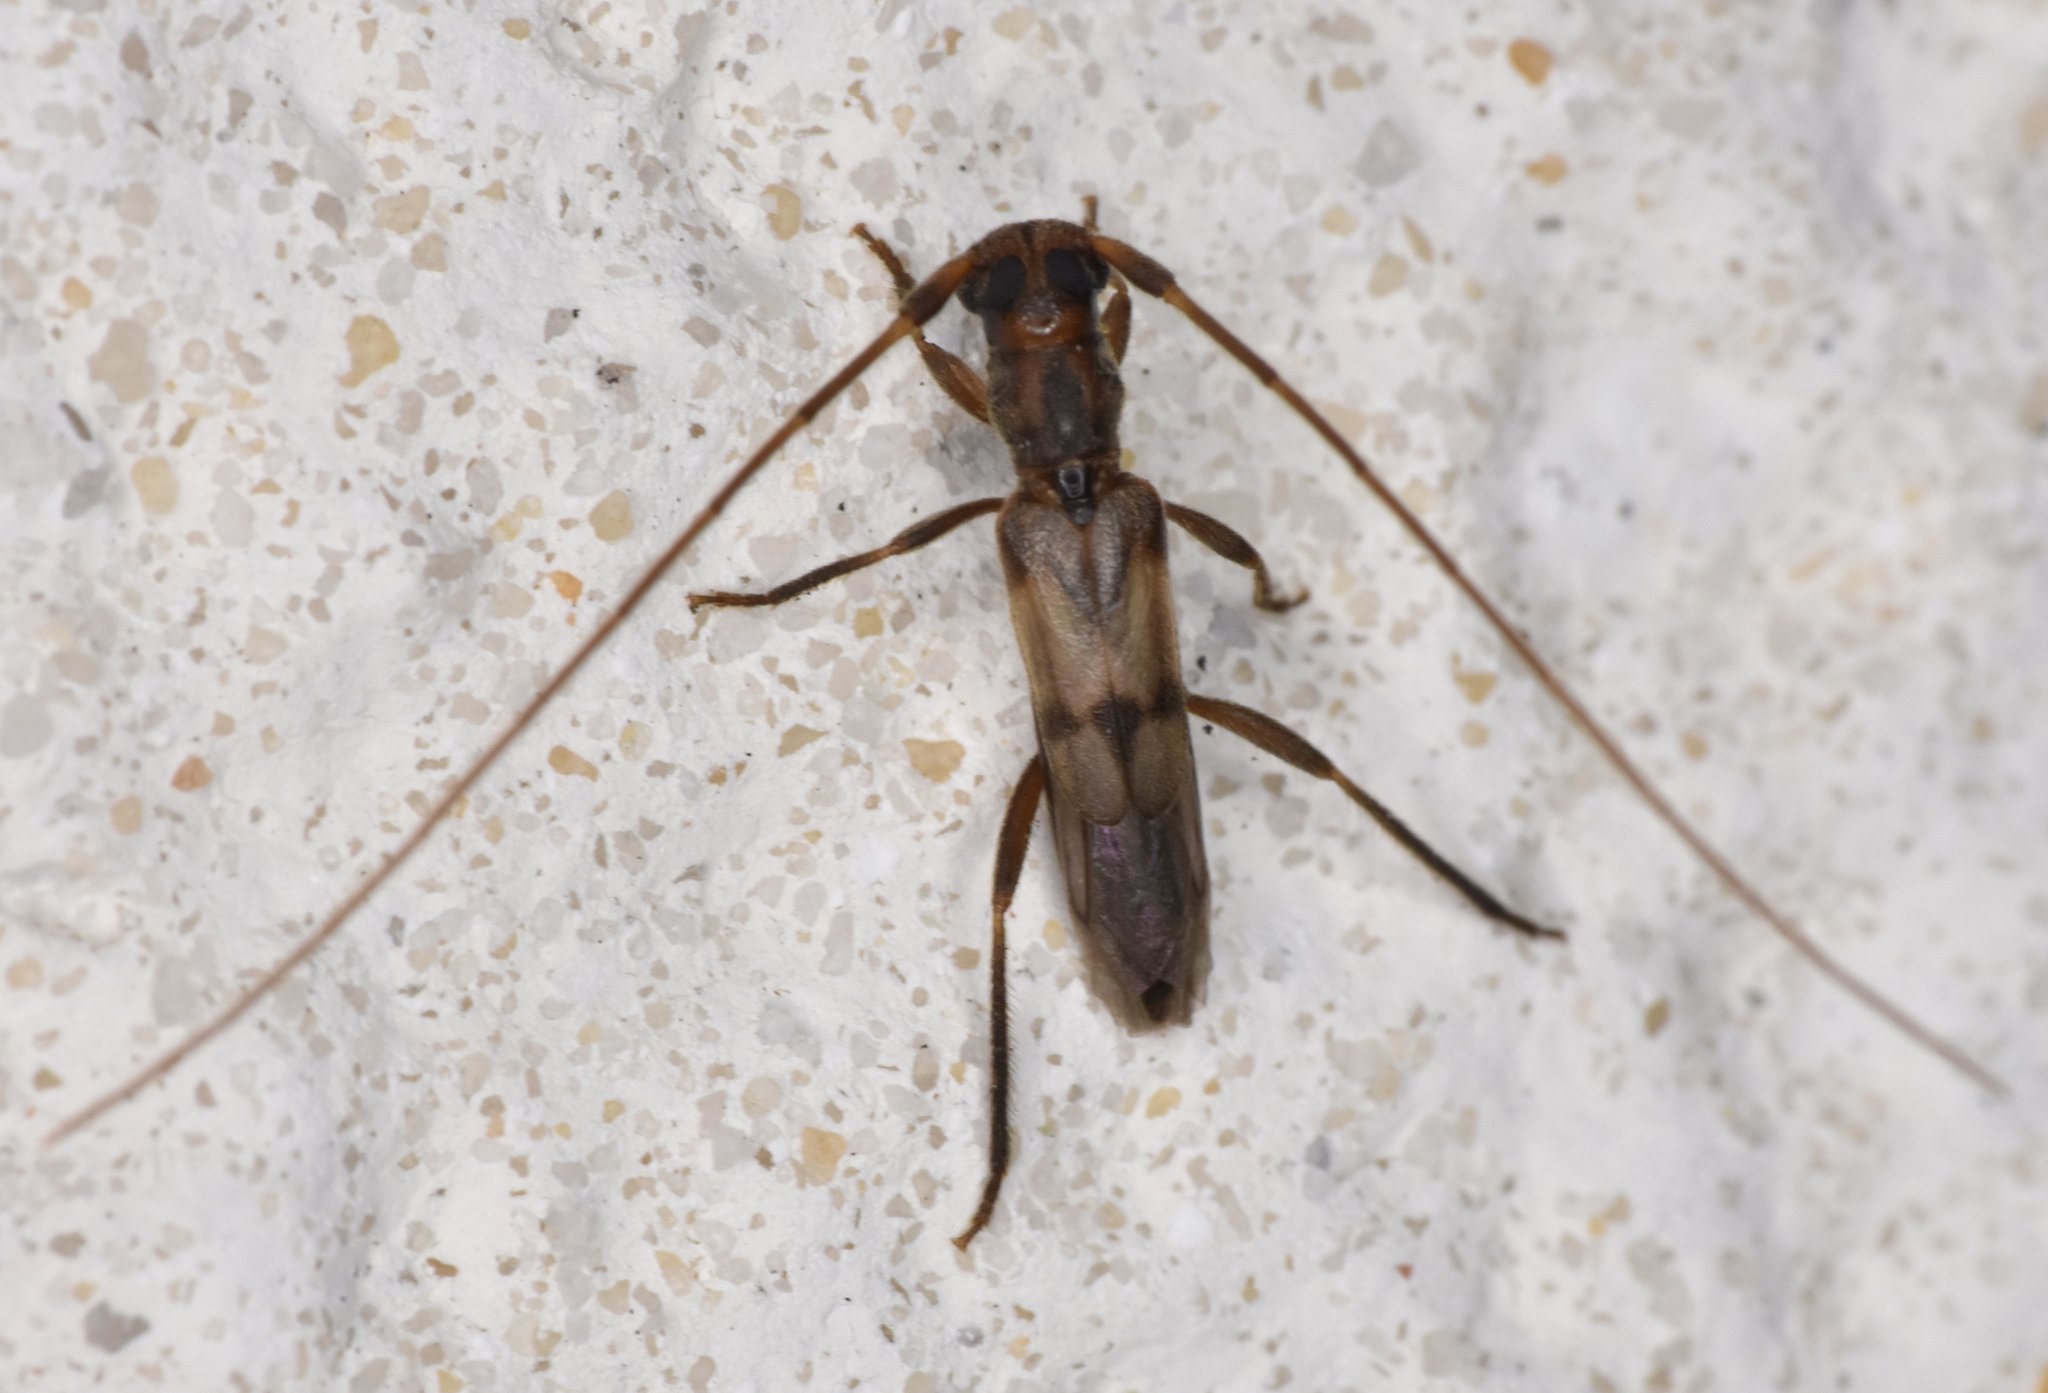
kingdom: Animalia
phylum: Arthropoda
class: Insecta
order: Coleoptera
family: Cerambycidae
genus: Methia
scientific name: Methia necydalea
